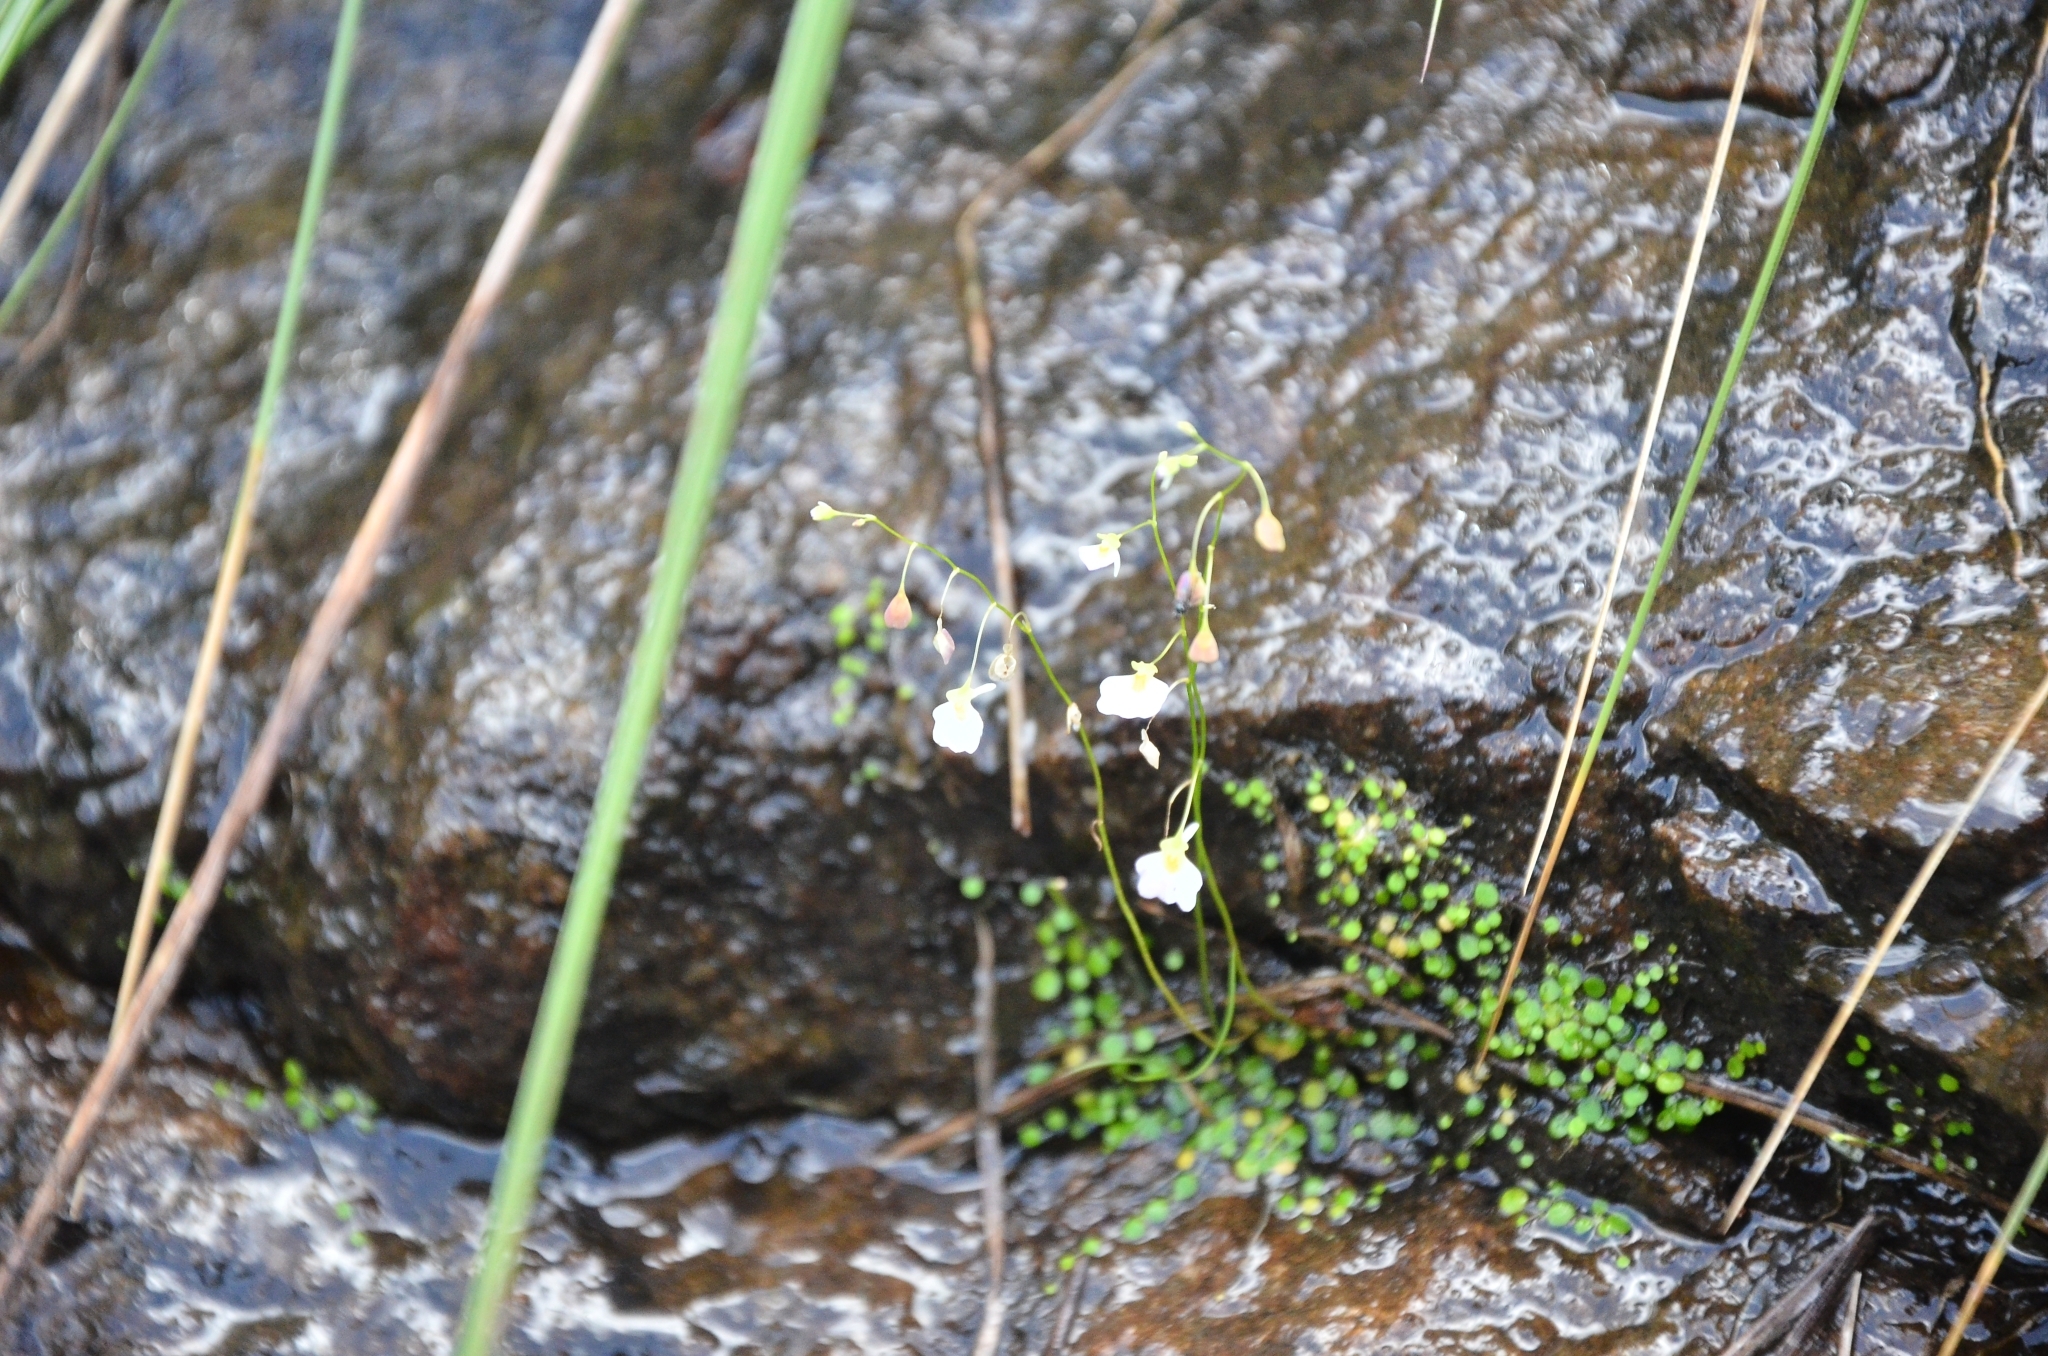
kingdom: Plantae
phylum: Tracheophyta
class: Magnoliopsida
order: Lamiales
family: Lentibulariaceae
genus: Utricularia
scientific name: Utricularia striatula
